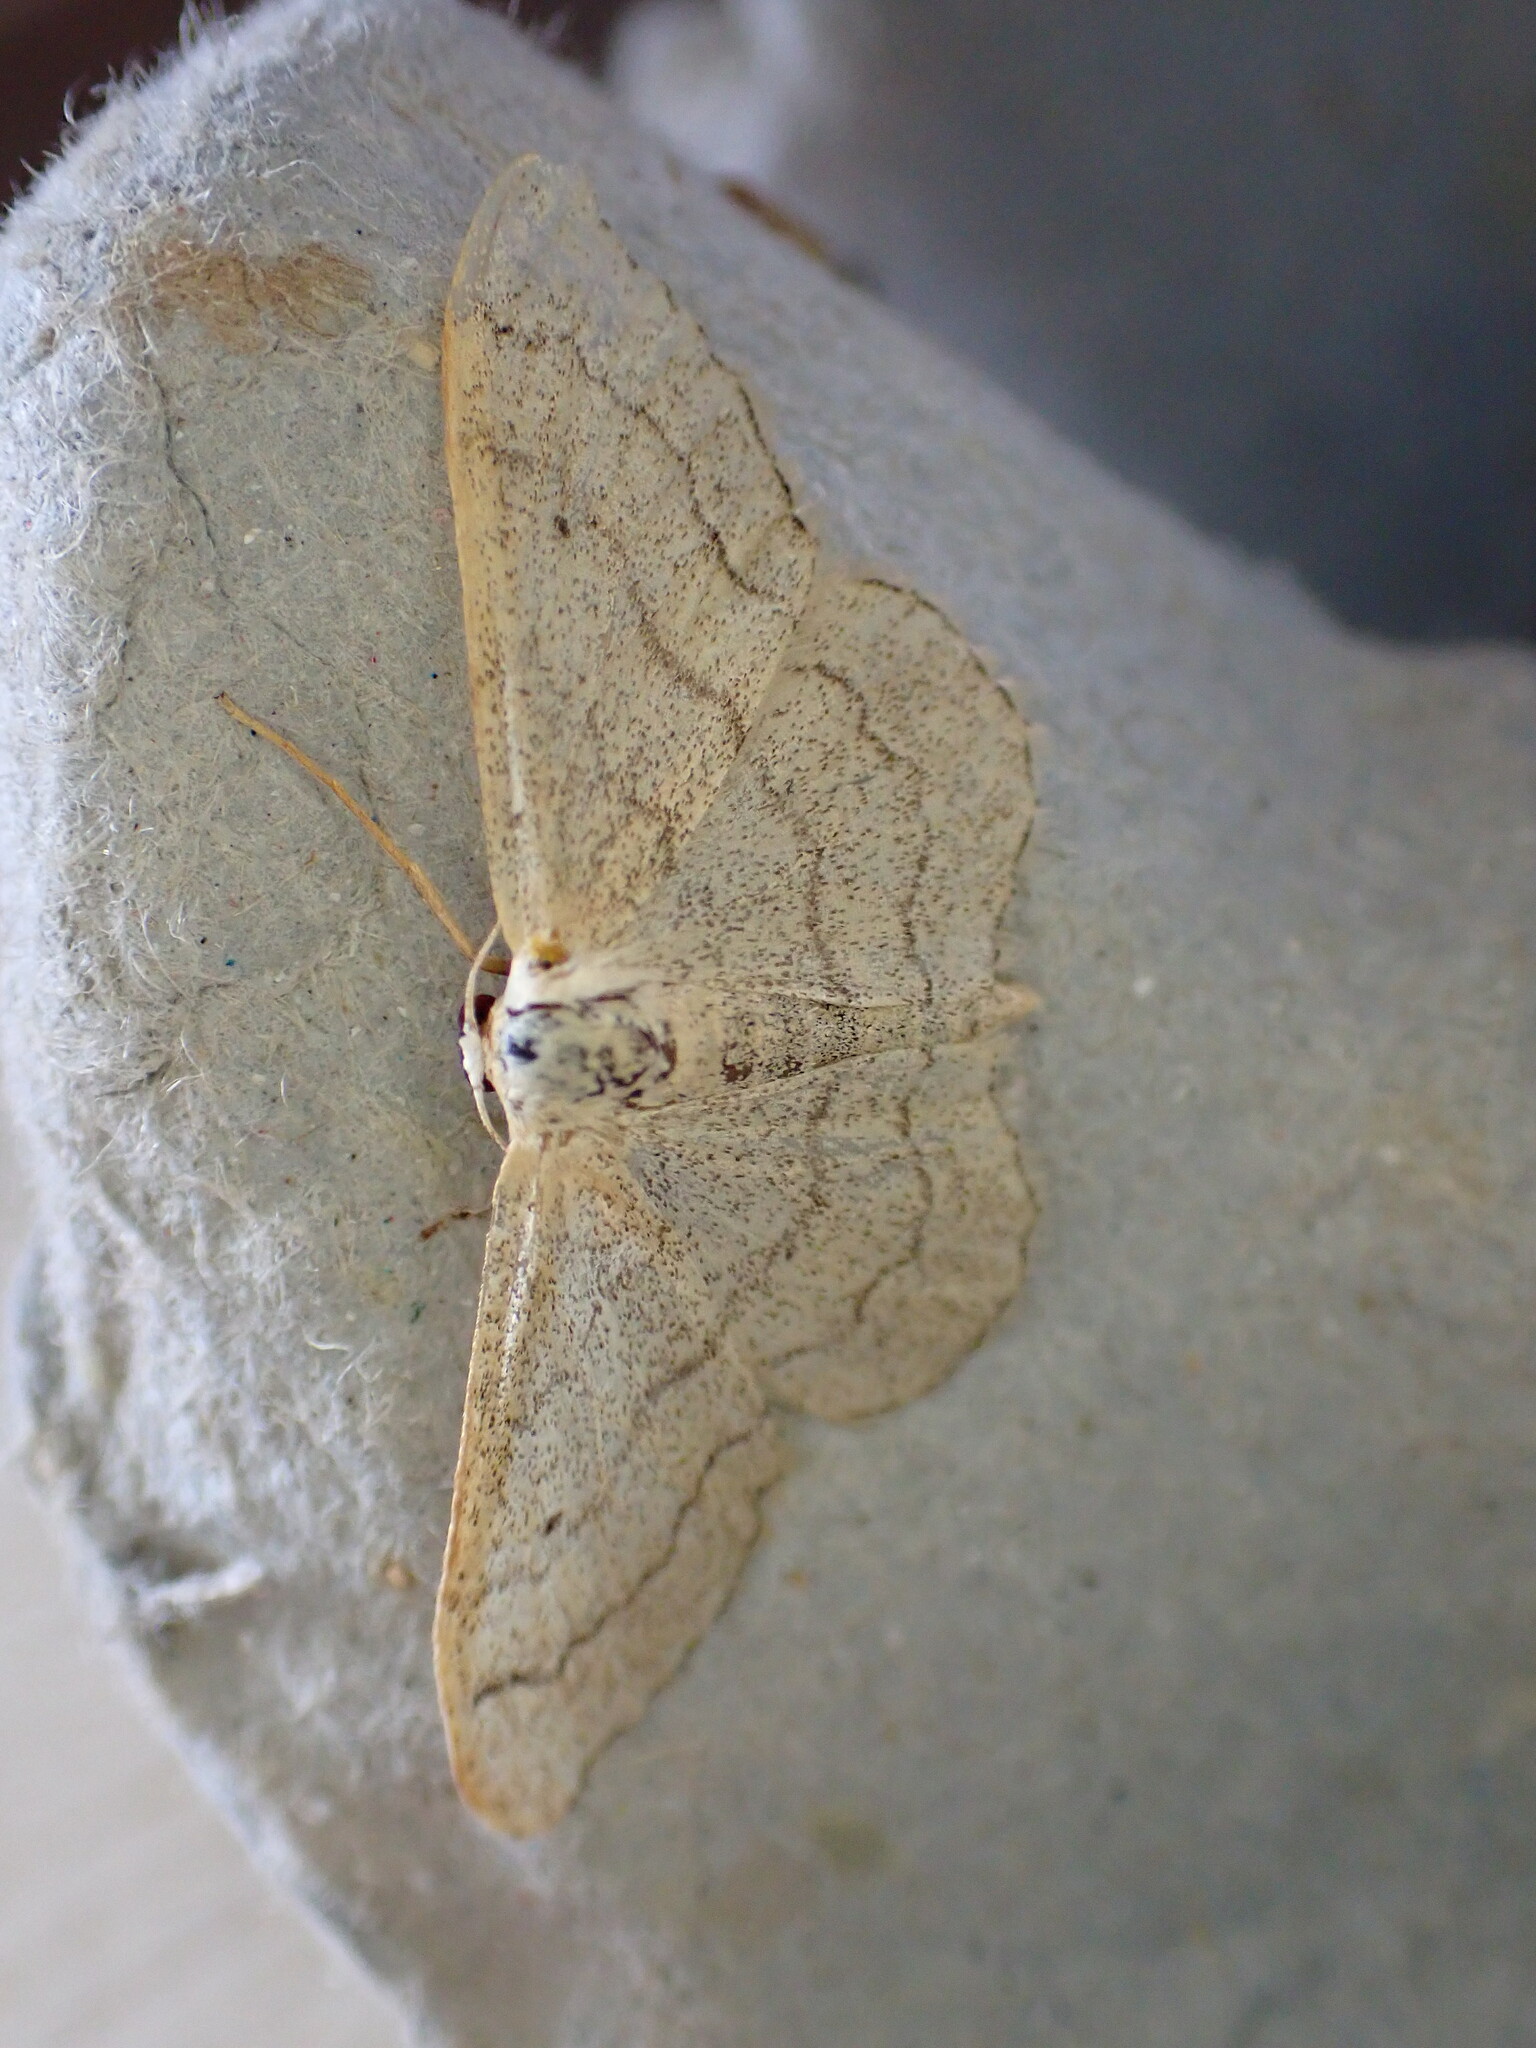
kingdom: Animalia
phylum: Arthropoda
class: Insecta
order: Lepidoptera
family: Geometridae
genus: Idaea
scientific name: Idaea aversata
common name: Riband wave
